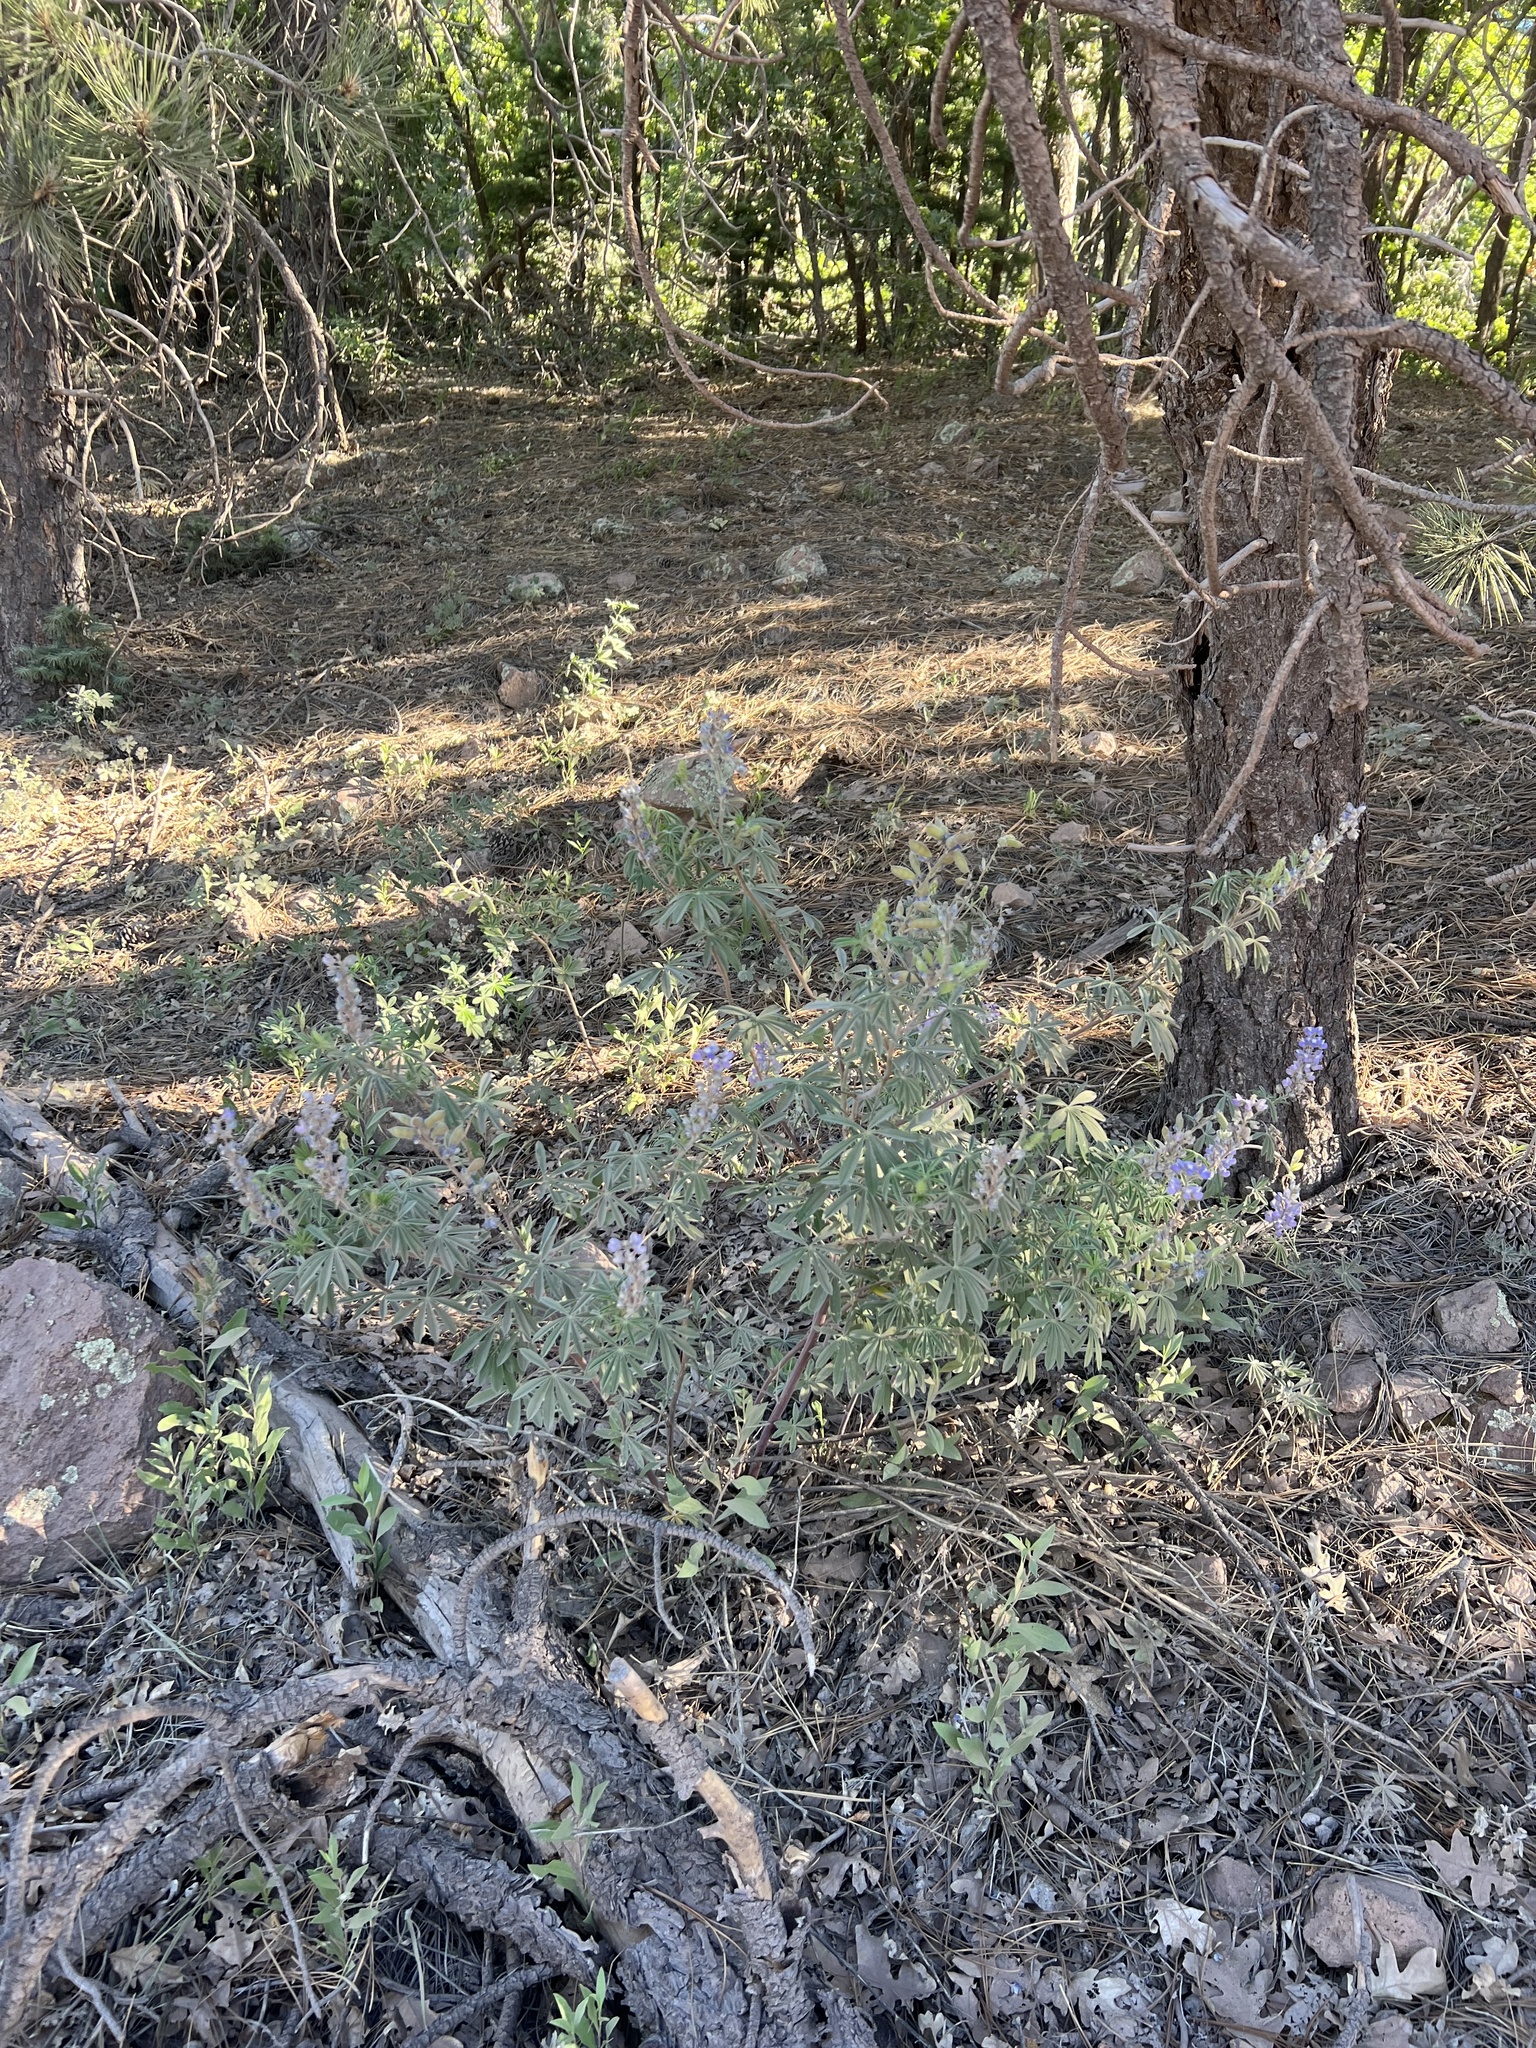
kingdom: Plantae
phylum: Tracheophyta
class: Magnoliopsida
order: Fabales
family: Fabaceae
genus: Lupinus
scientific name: Lupinus argenteus
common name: Silvery lupine
